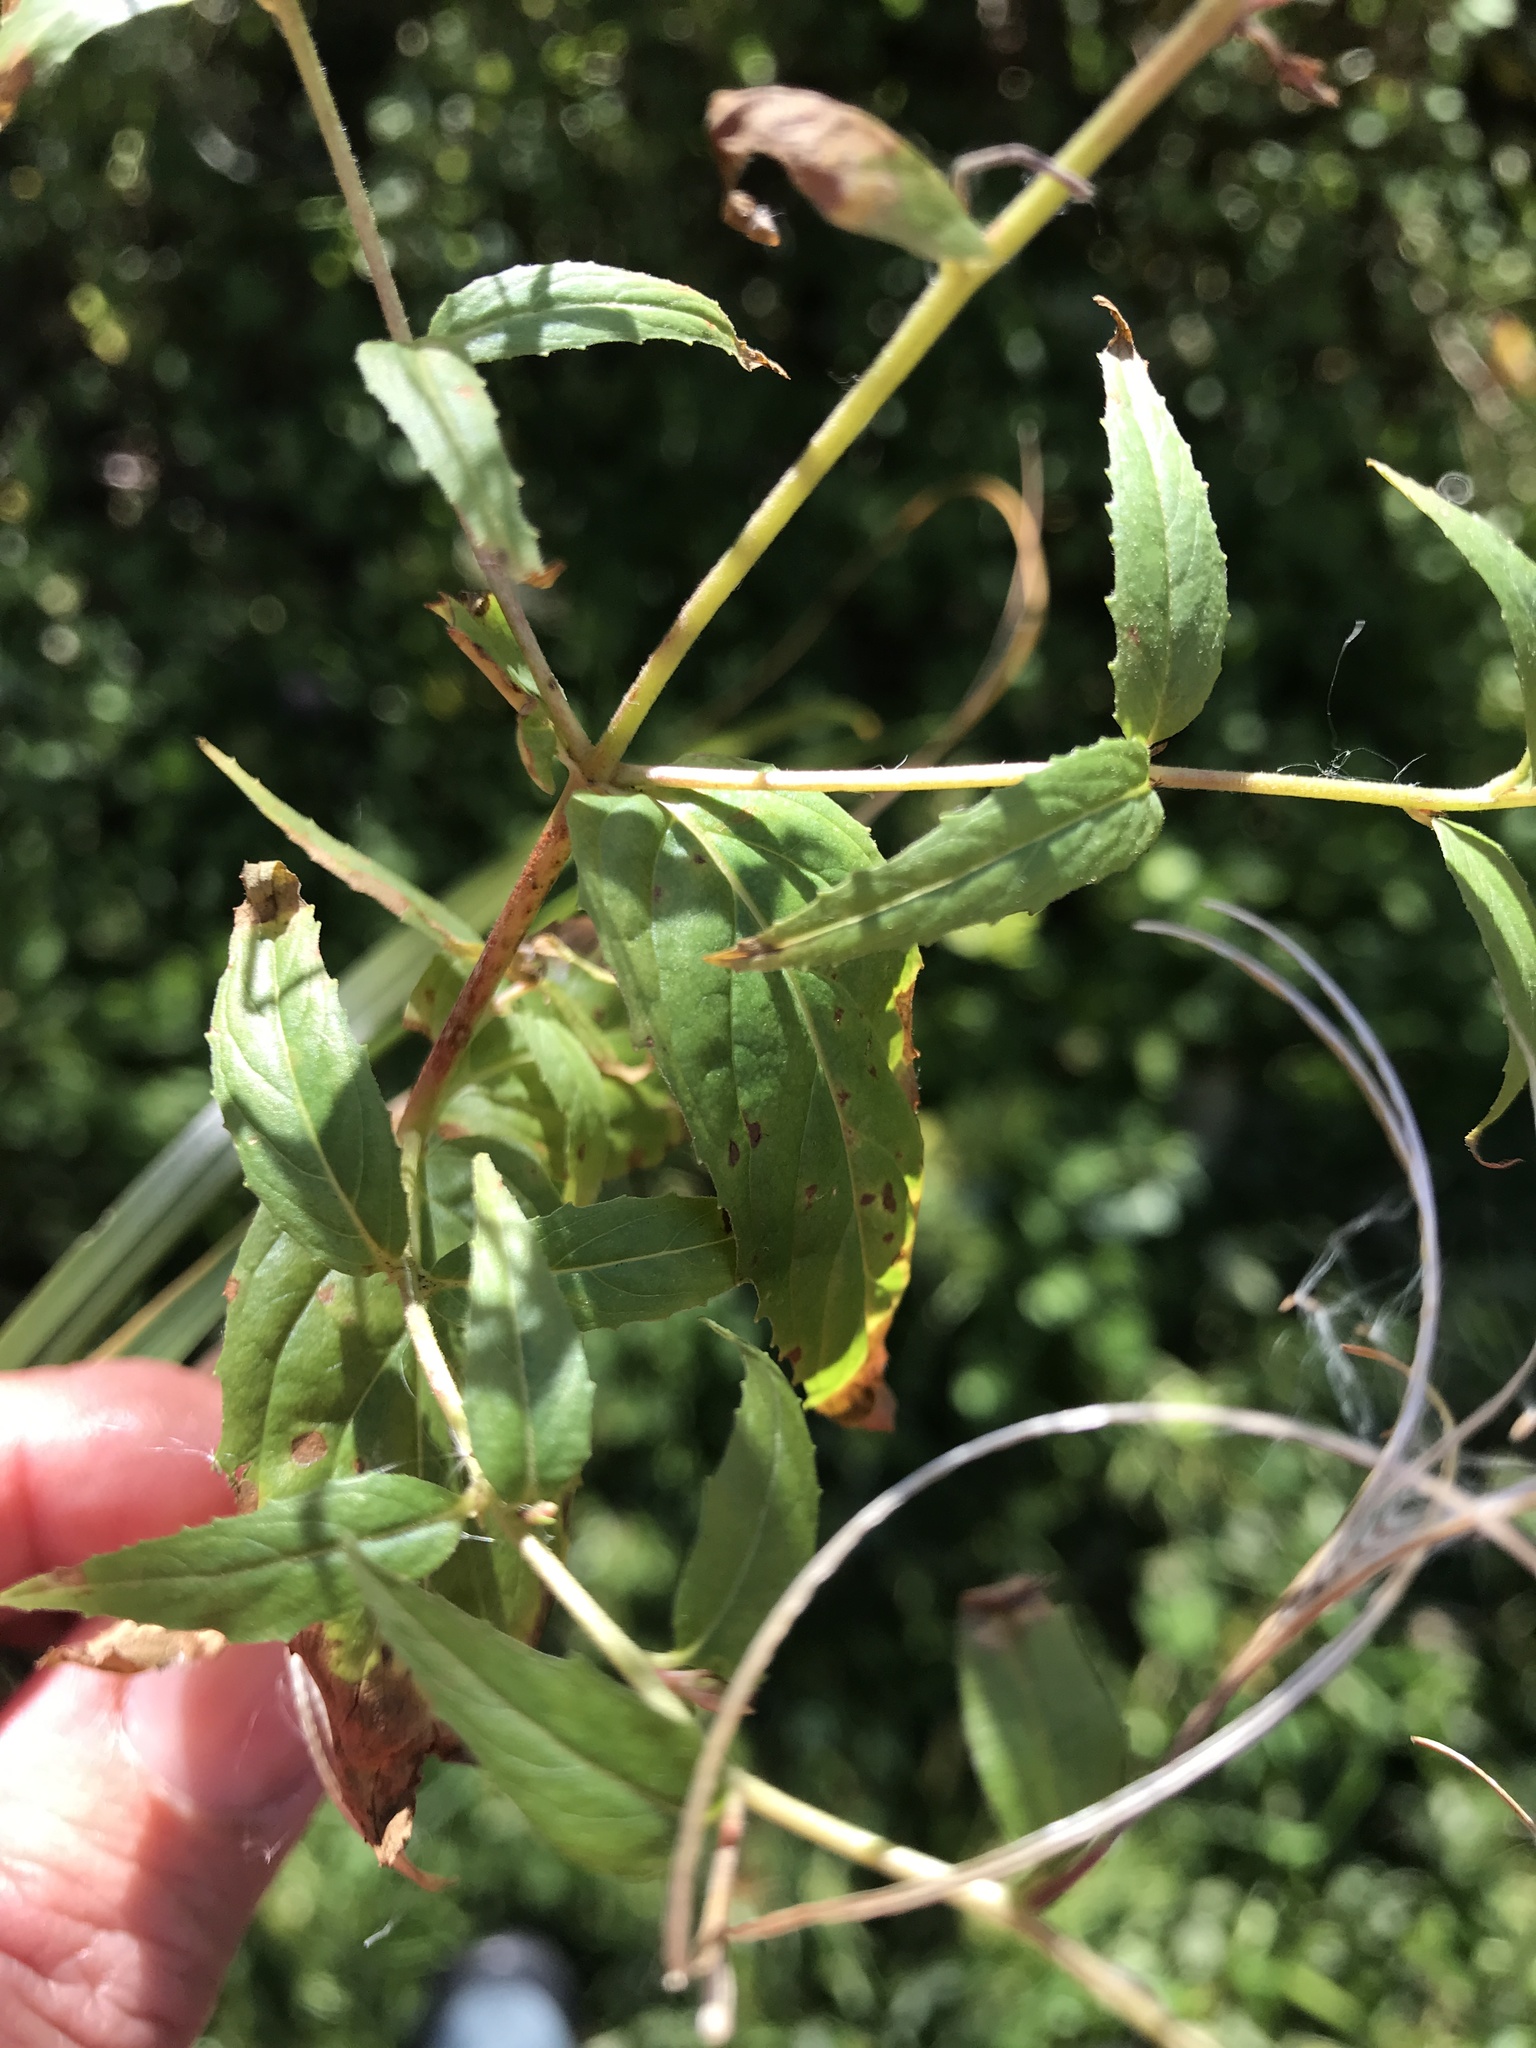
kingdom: Plantae
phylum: Tracheophyta
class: Magnoliopsida
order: Myrtales
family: Onagraceae
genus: Epilobium
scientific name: Epilobium ciliatum
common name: American willowherb
